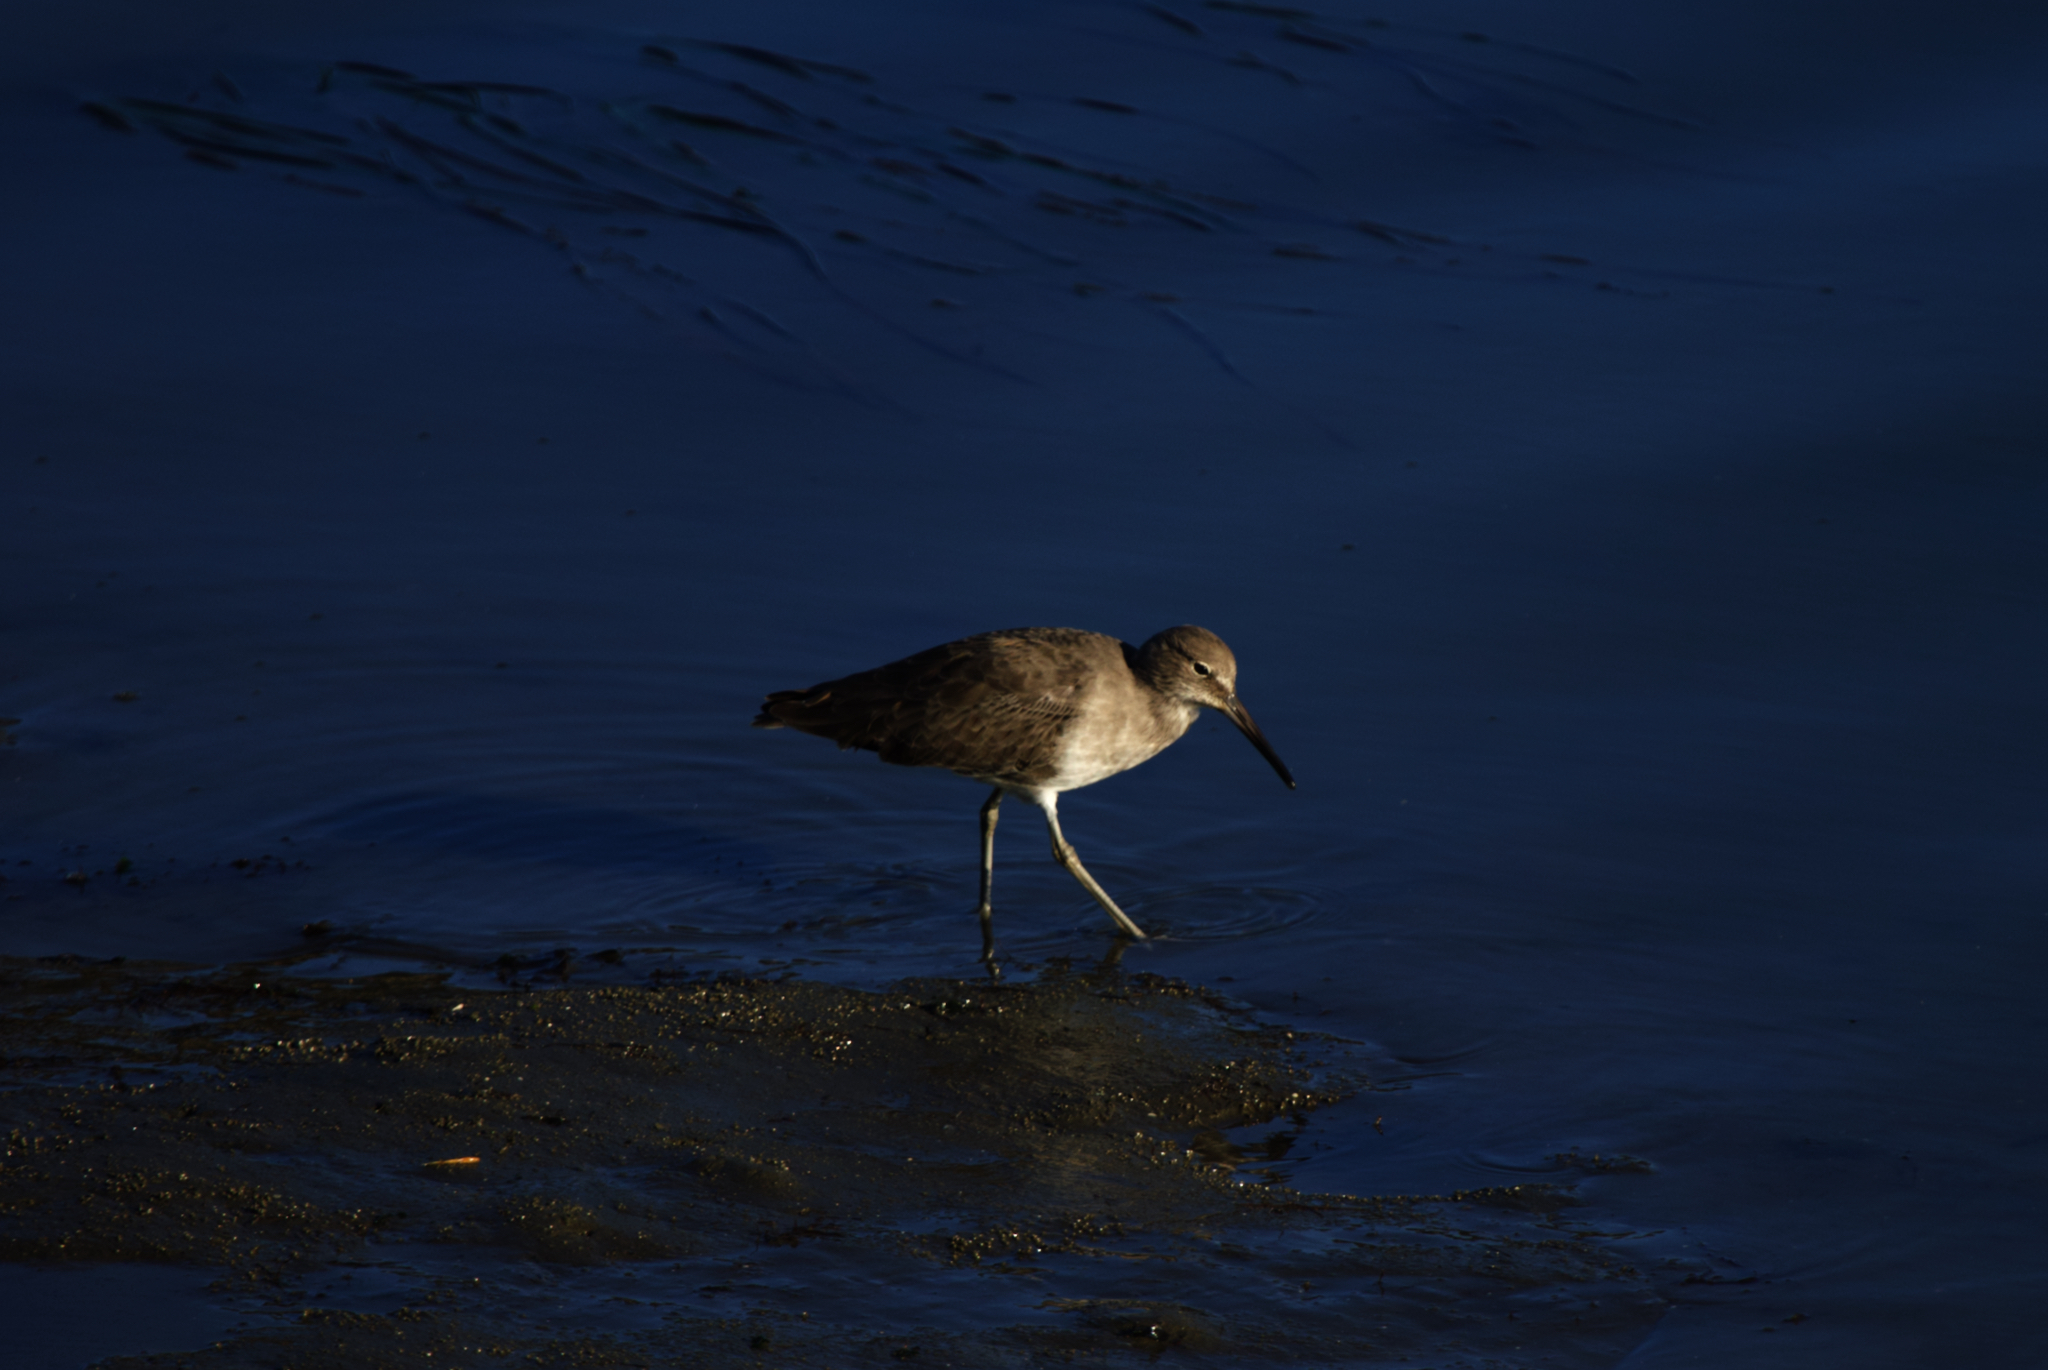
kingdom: Animalia
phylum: Chordata
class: Aves
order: Charadriiformes
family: Scolopacidae
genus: Tringa
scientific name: Tringa semipalmata
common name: Willet
